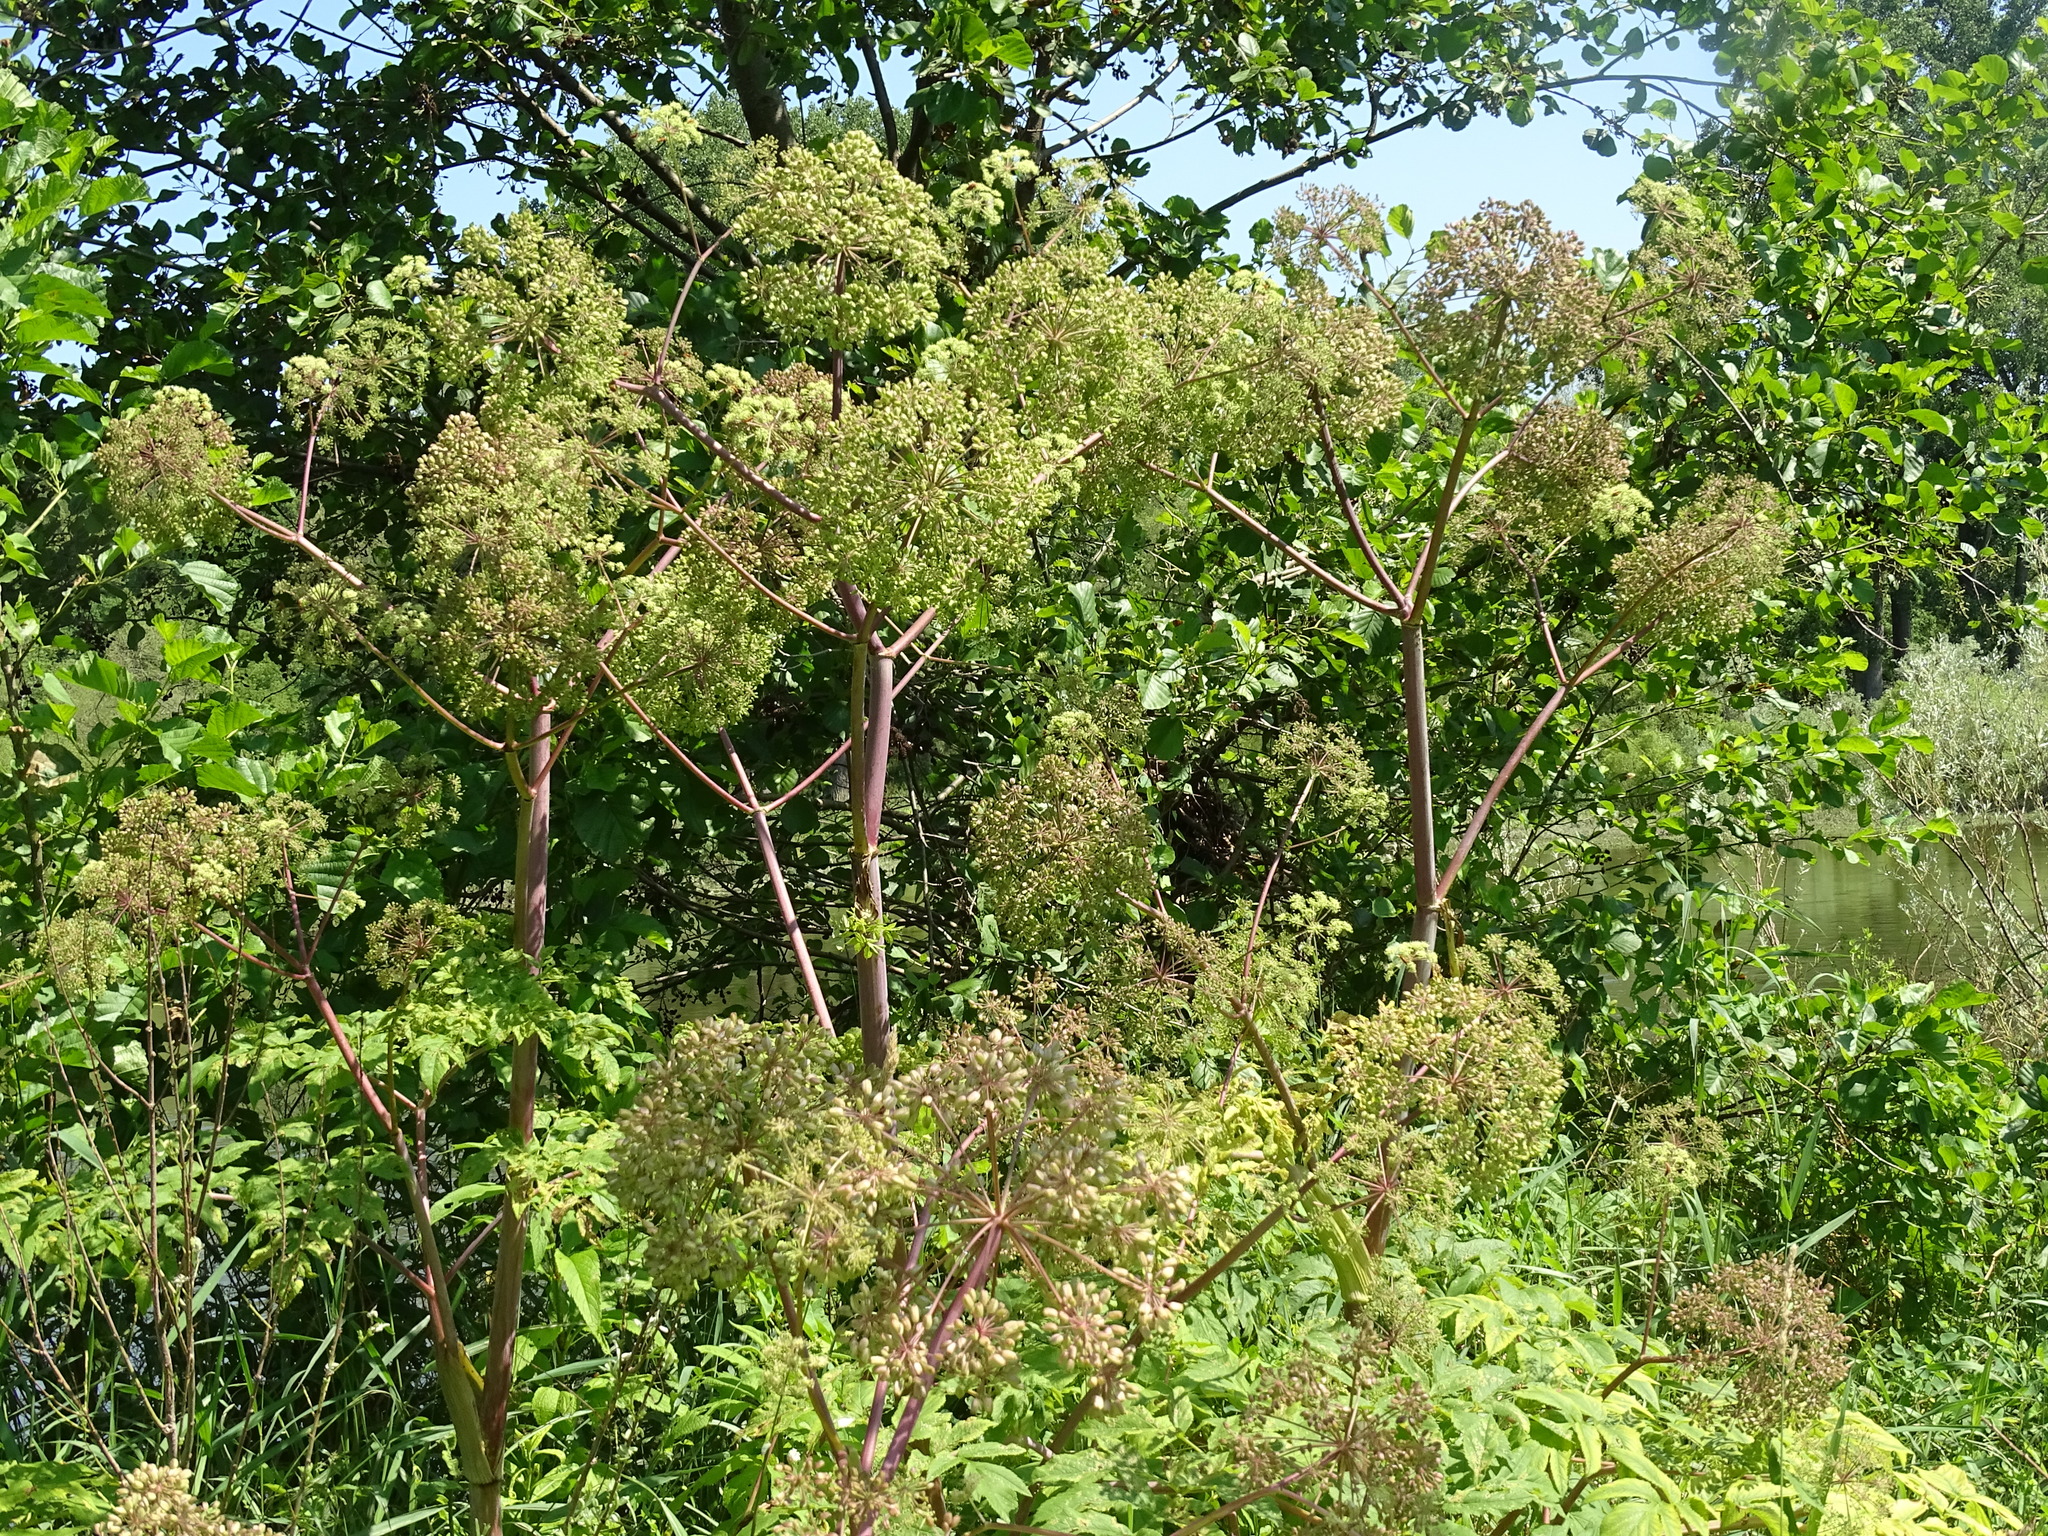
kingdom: Plantae
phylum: Tracheophyta
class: Magnoliopsida
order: Apiales
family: Apiaceae
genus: Angelica
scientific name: Angelica atropurpurea
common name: Great angelica
